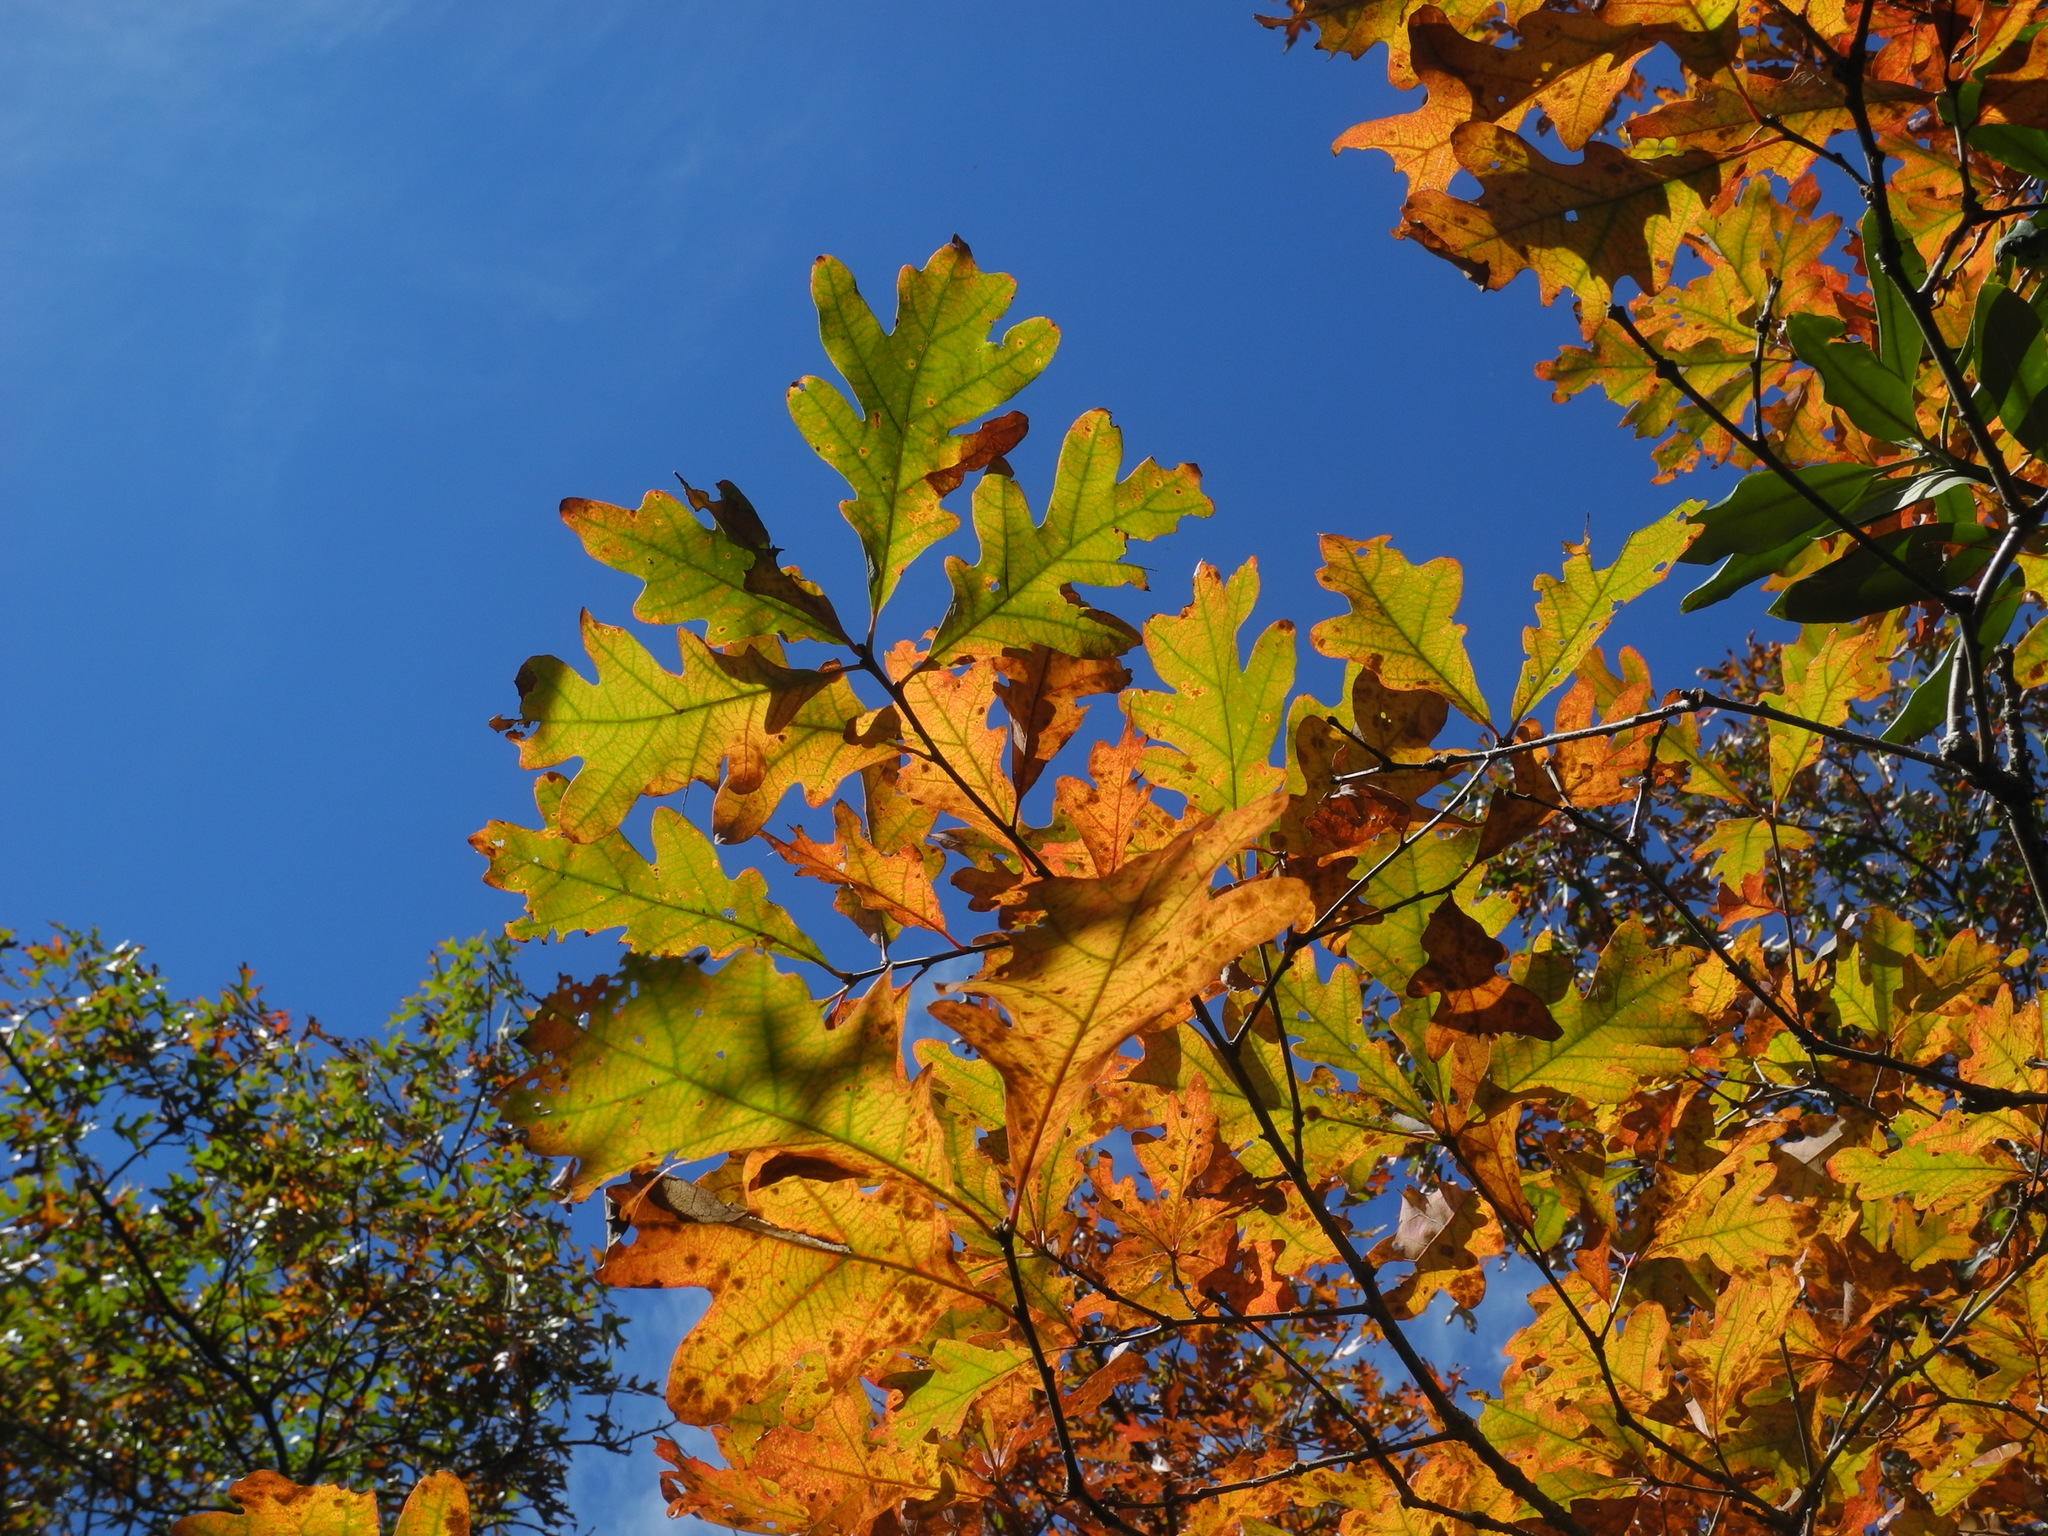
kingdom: Plantae
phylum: Tracheophyta
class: Magnoliopsida
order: Fagales
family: Fagaceae
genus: Quercus
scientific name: Quercus alba
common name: White oak
